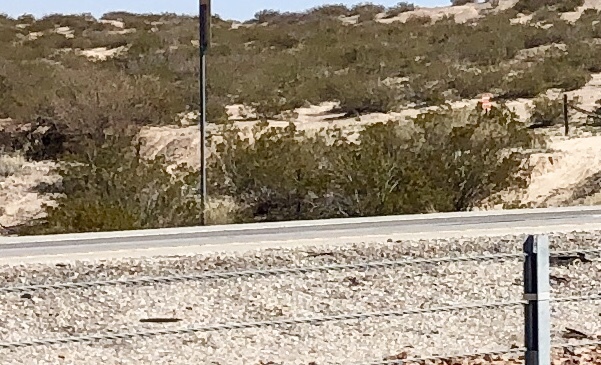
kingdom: Plantae
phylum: Tracheophyta
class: Magnoliopsida
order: Zygophyllales
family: Zygophyllaceae
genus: Larrea
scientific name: Larrea tridentata
